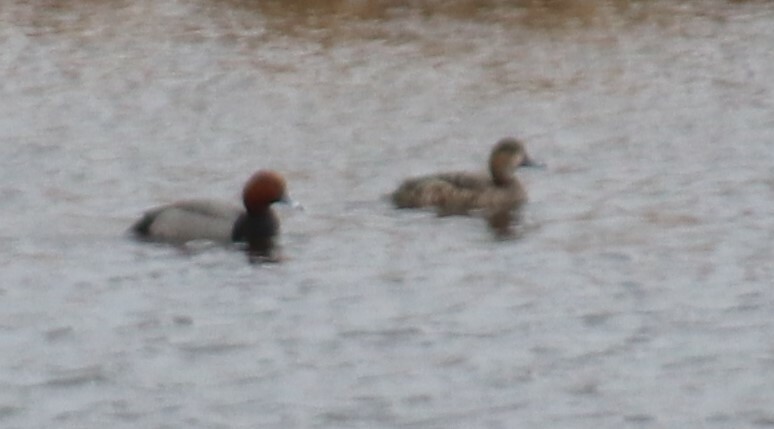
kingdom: Animalia
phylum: Chordata
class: Aves
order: Anseriformes
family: Anatidae
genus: Aythya
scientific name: Aythya americana
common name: Redhead
